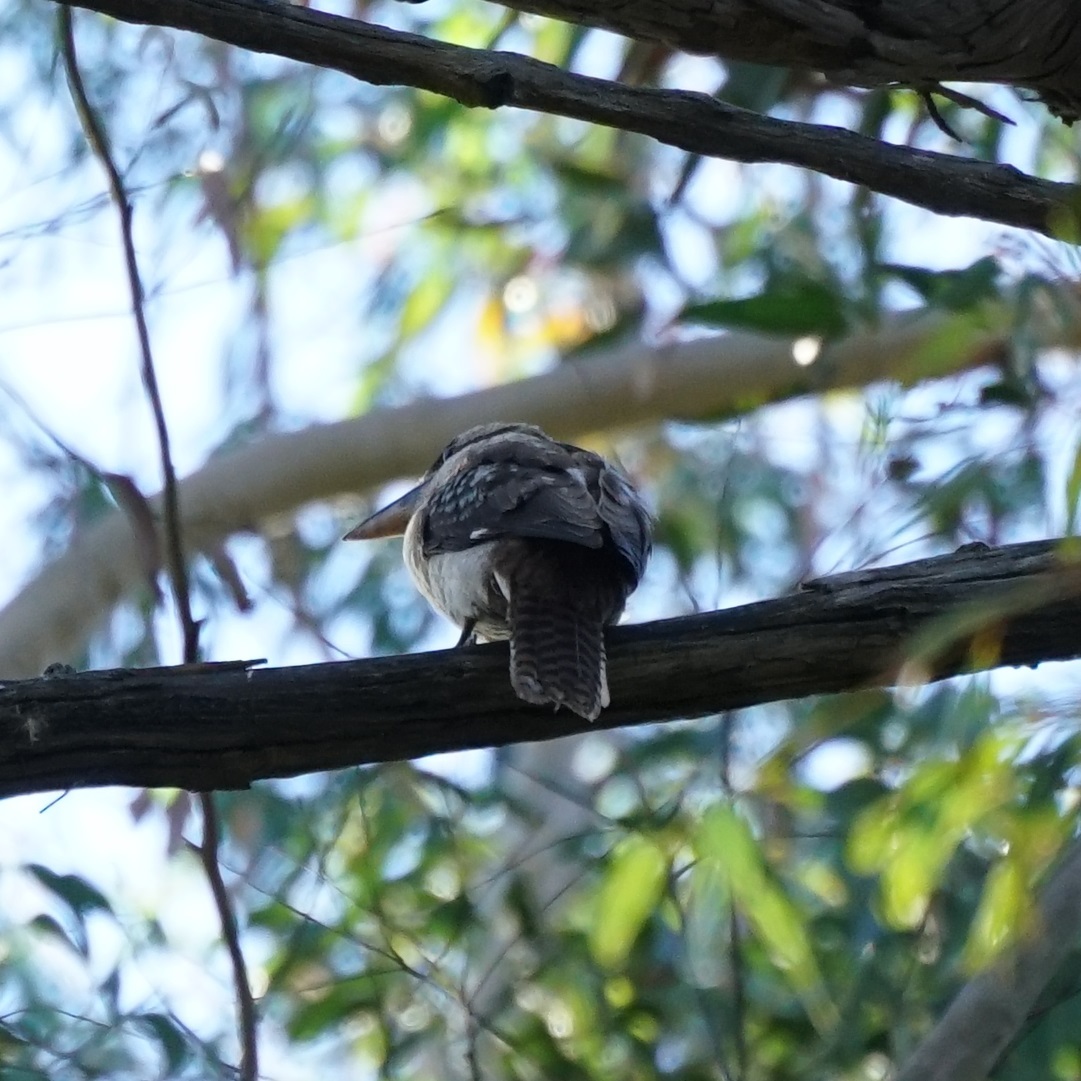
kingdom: Animalia
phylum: Chordata
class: Aves
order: Coraciiformes
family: Alcedinidae
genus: Dacelo
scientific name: Dacelo novaeguineae
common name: Laughing kookaburra
